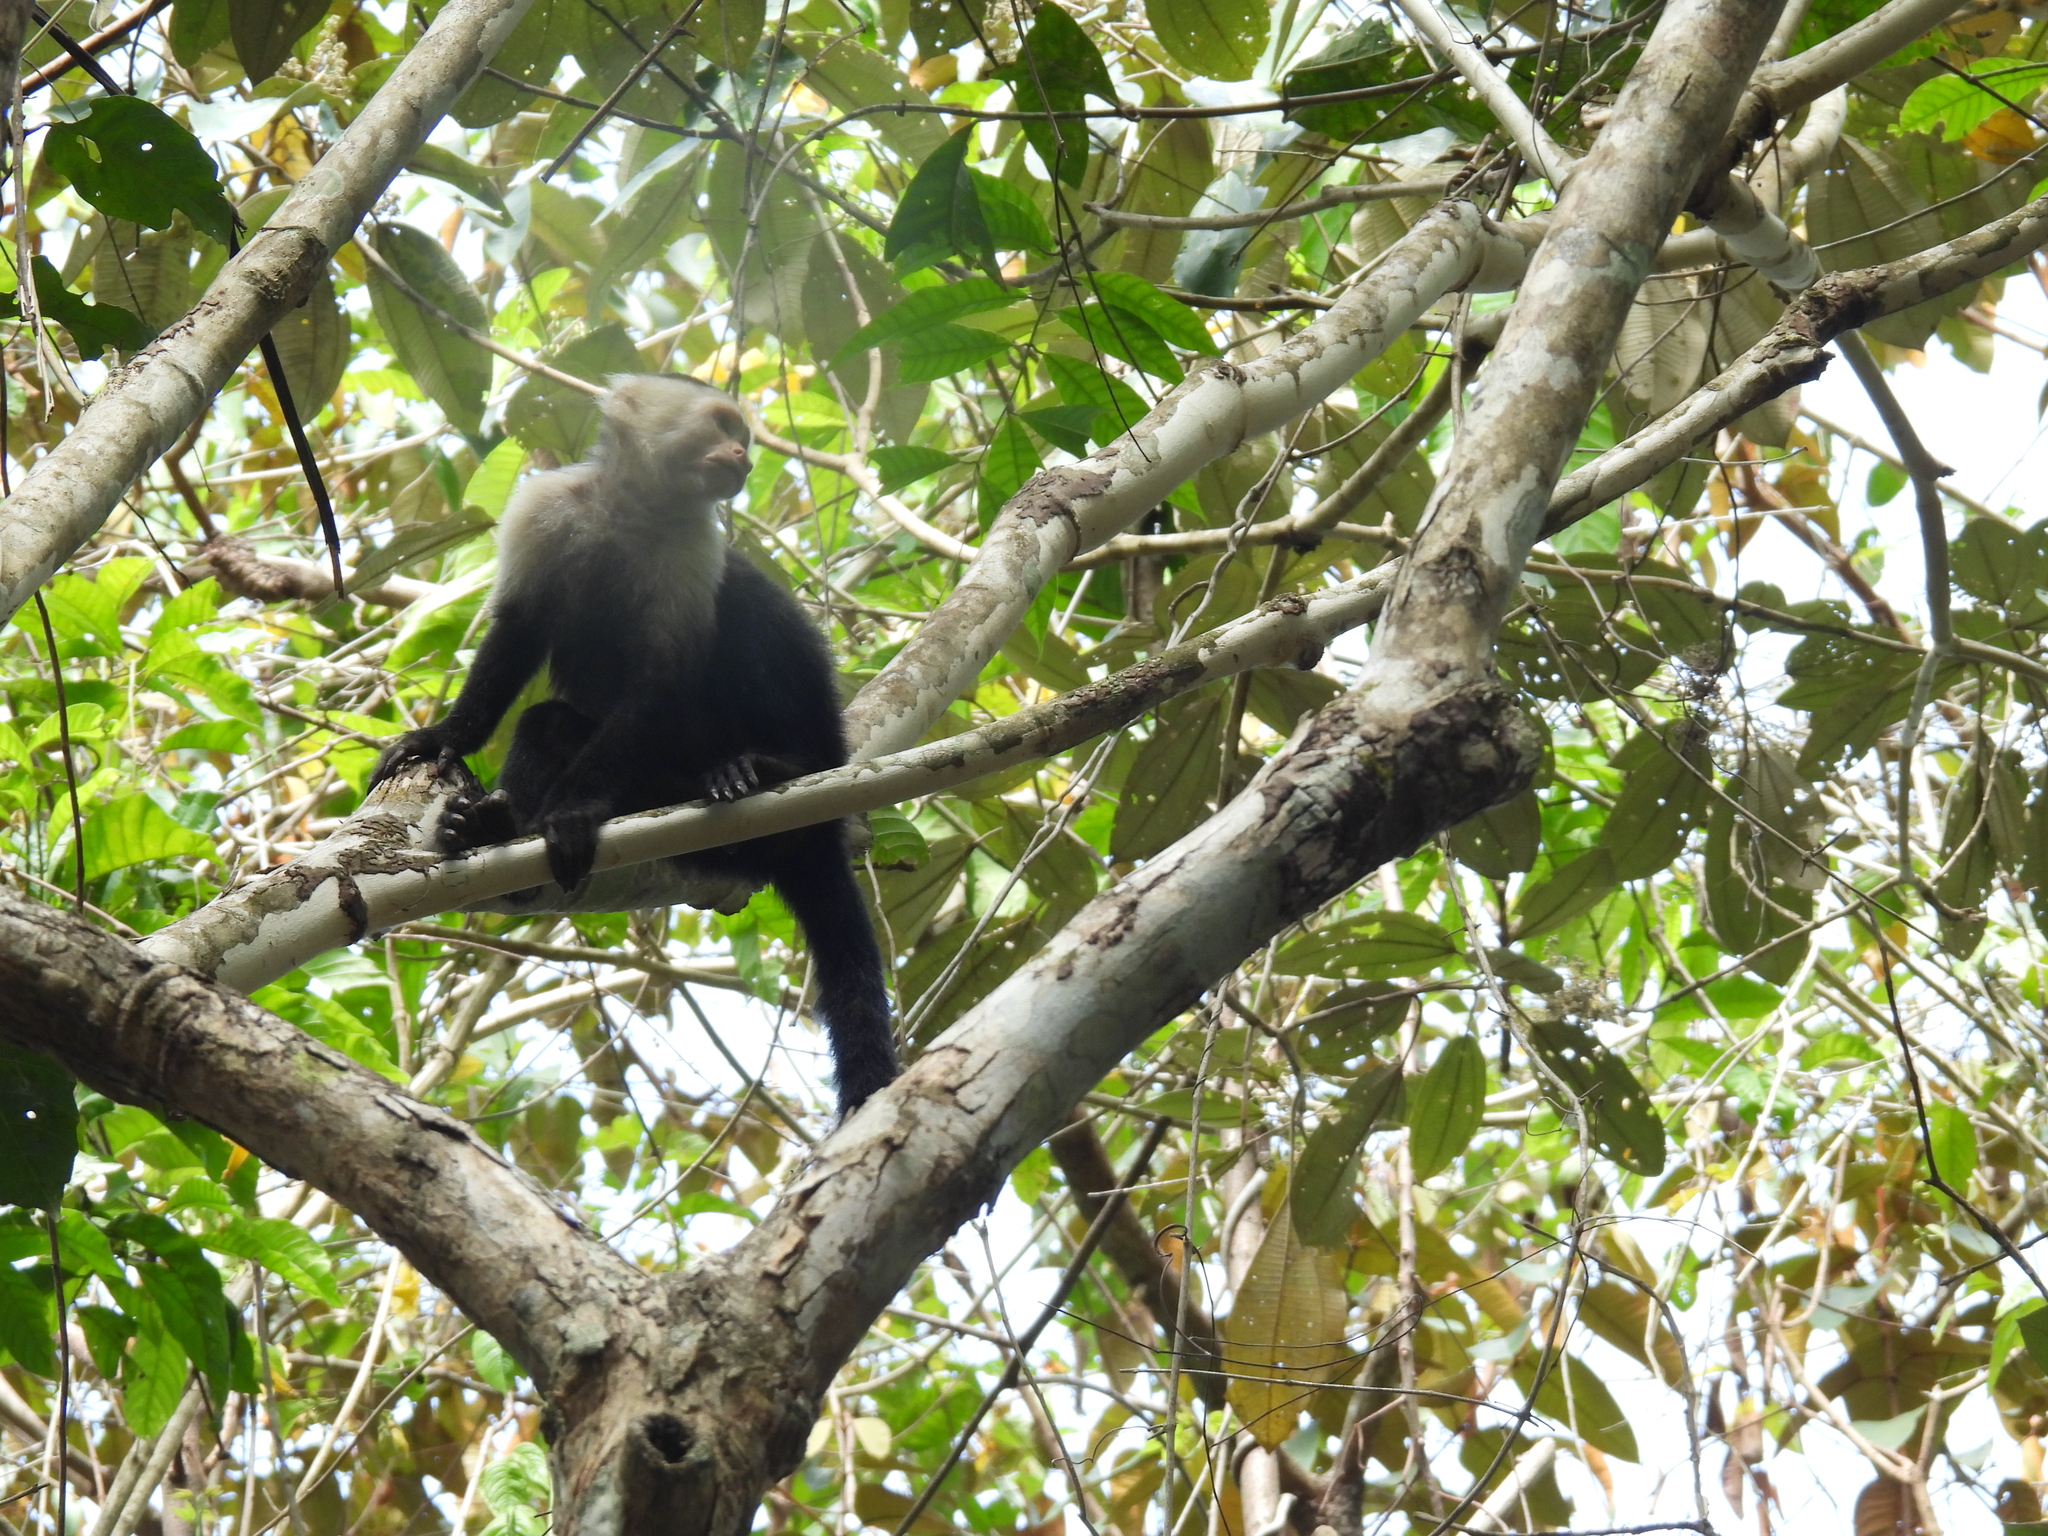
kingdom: Animalia
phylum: Chordata
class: Mammalia
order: Primates
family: Cebidae
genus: Cebus
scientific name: Cebus imitator
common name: Panamanian white-faced capuchin
